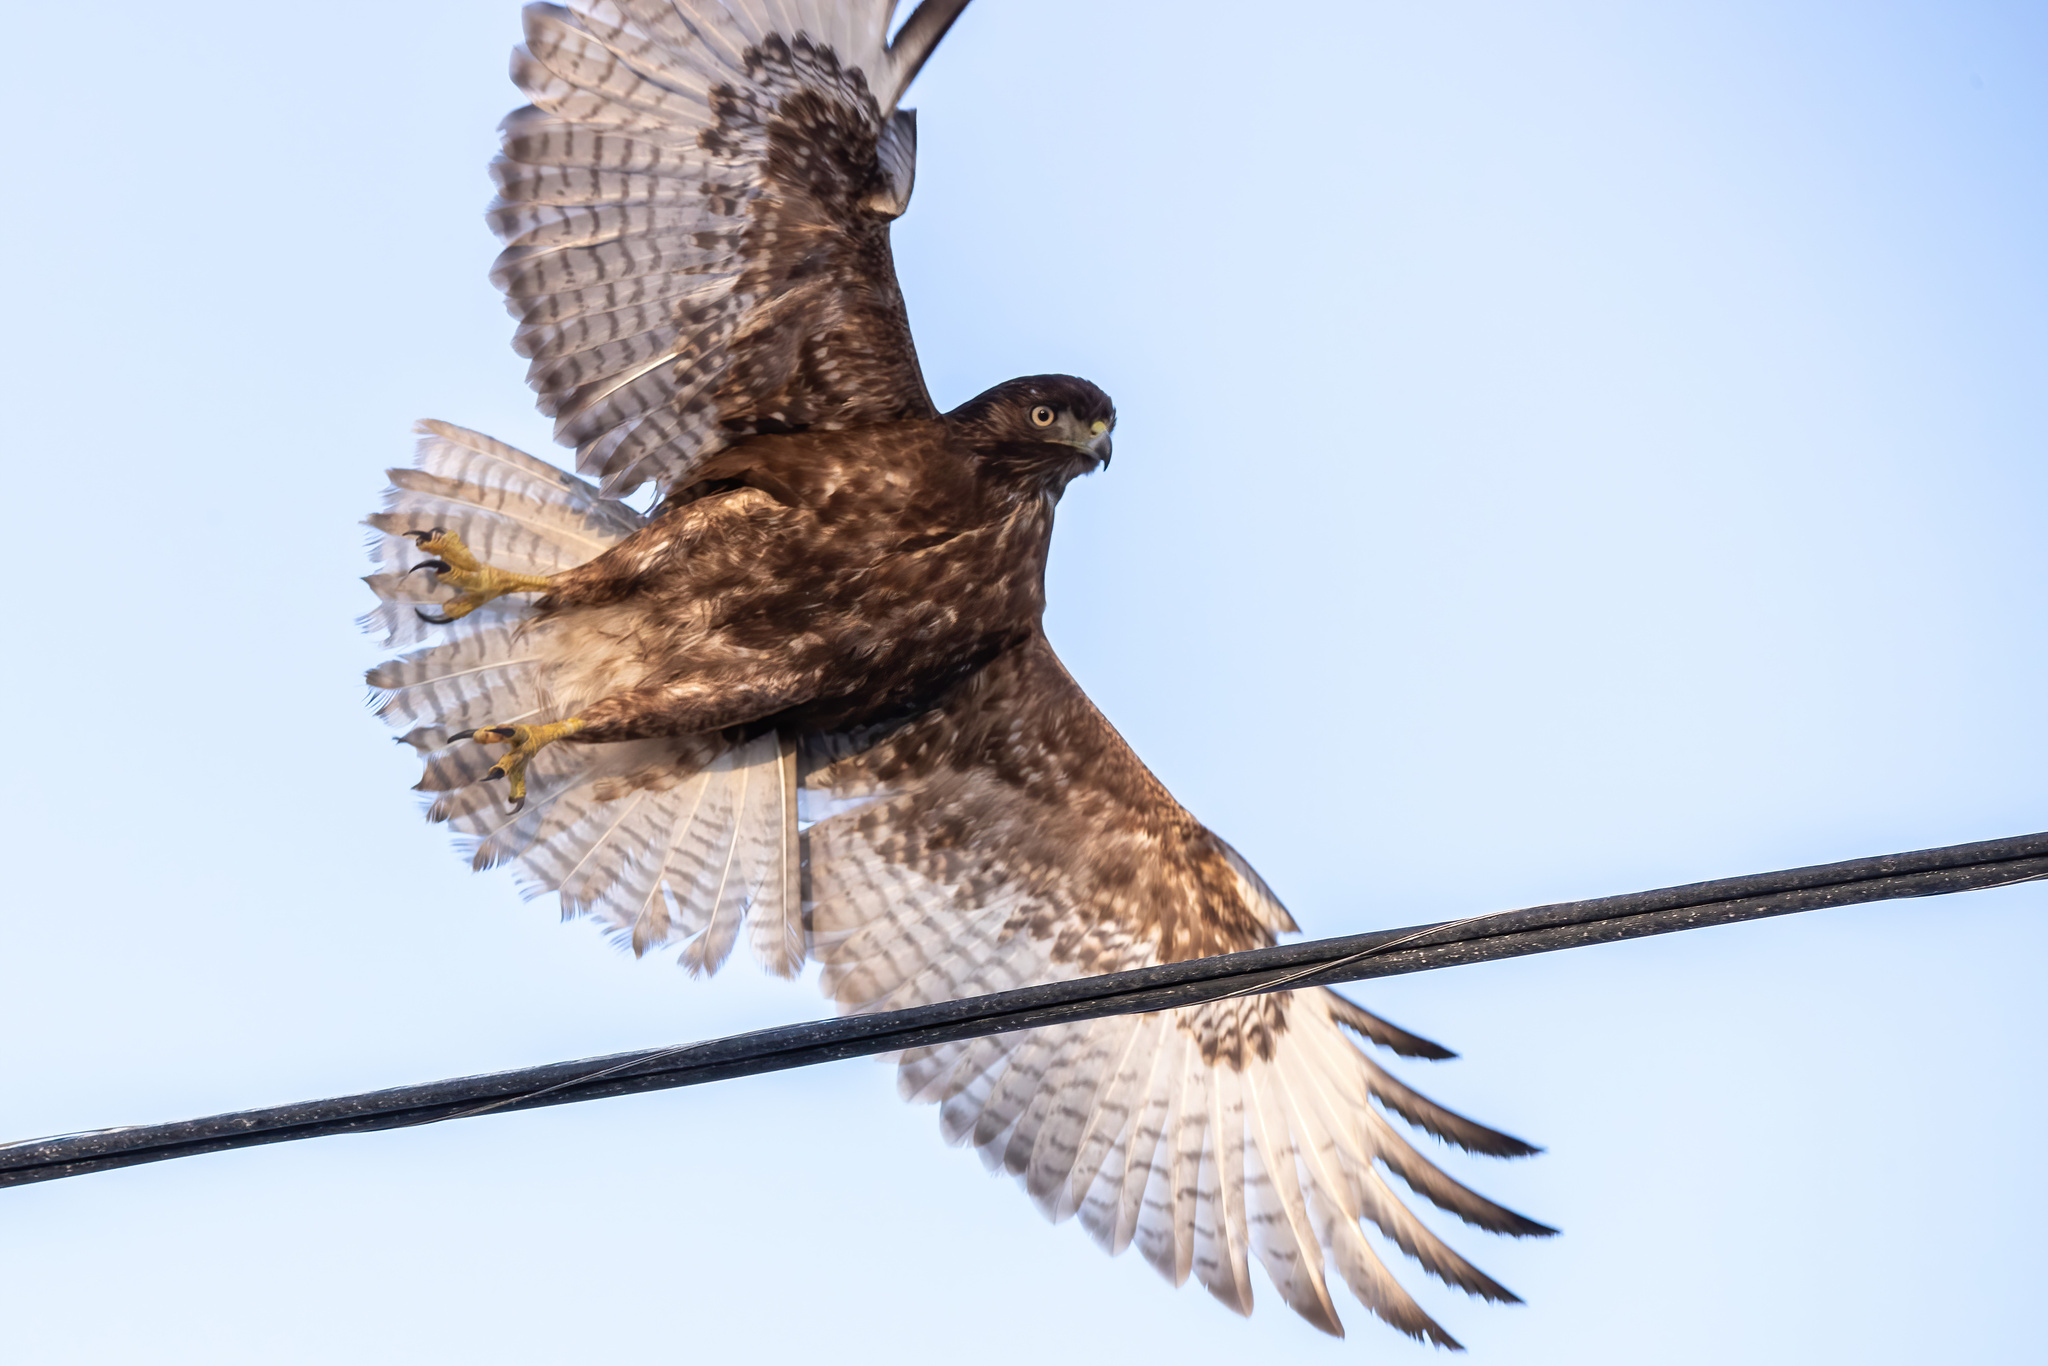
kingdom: Animalia
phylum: Chordata
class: Aves
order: Accipitriformes
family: Accipitridae
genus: Buteo
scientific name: Buteo jamaicensis
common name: Red-tailed hawk
